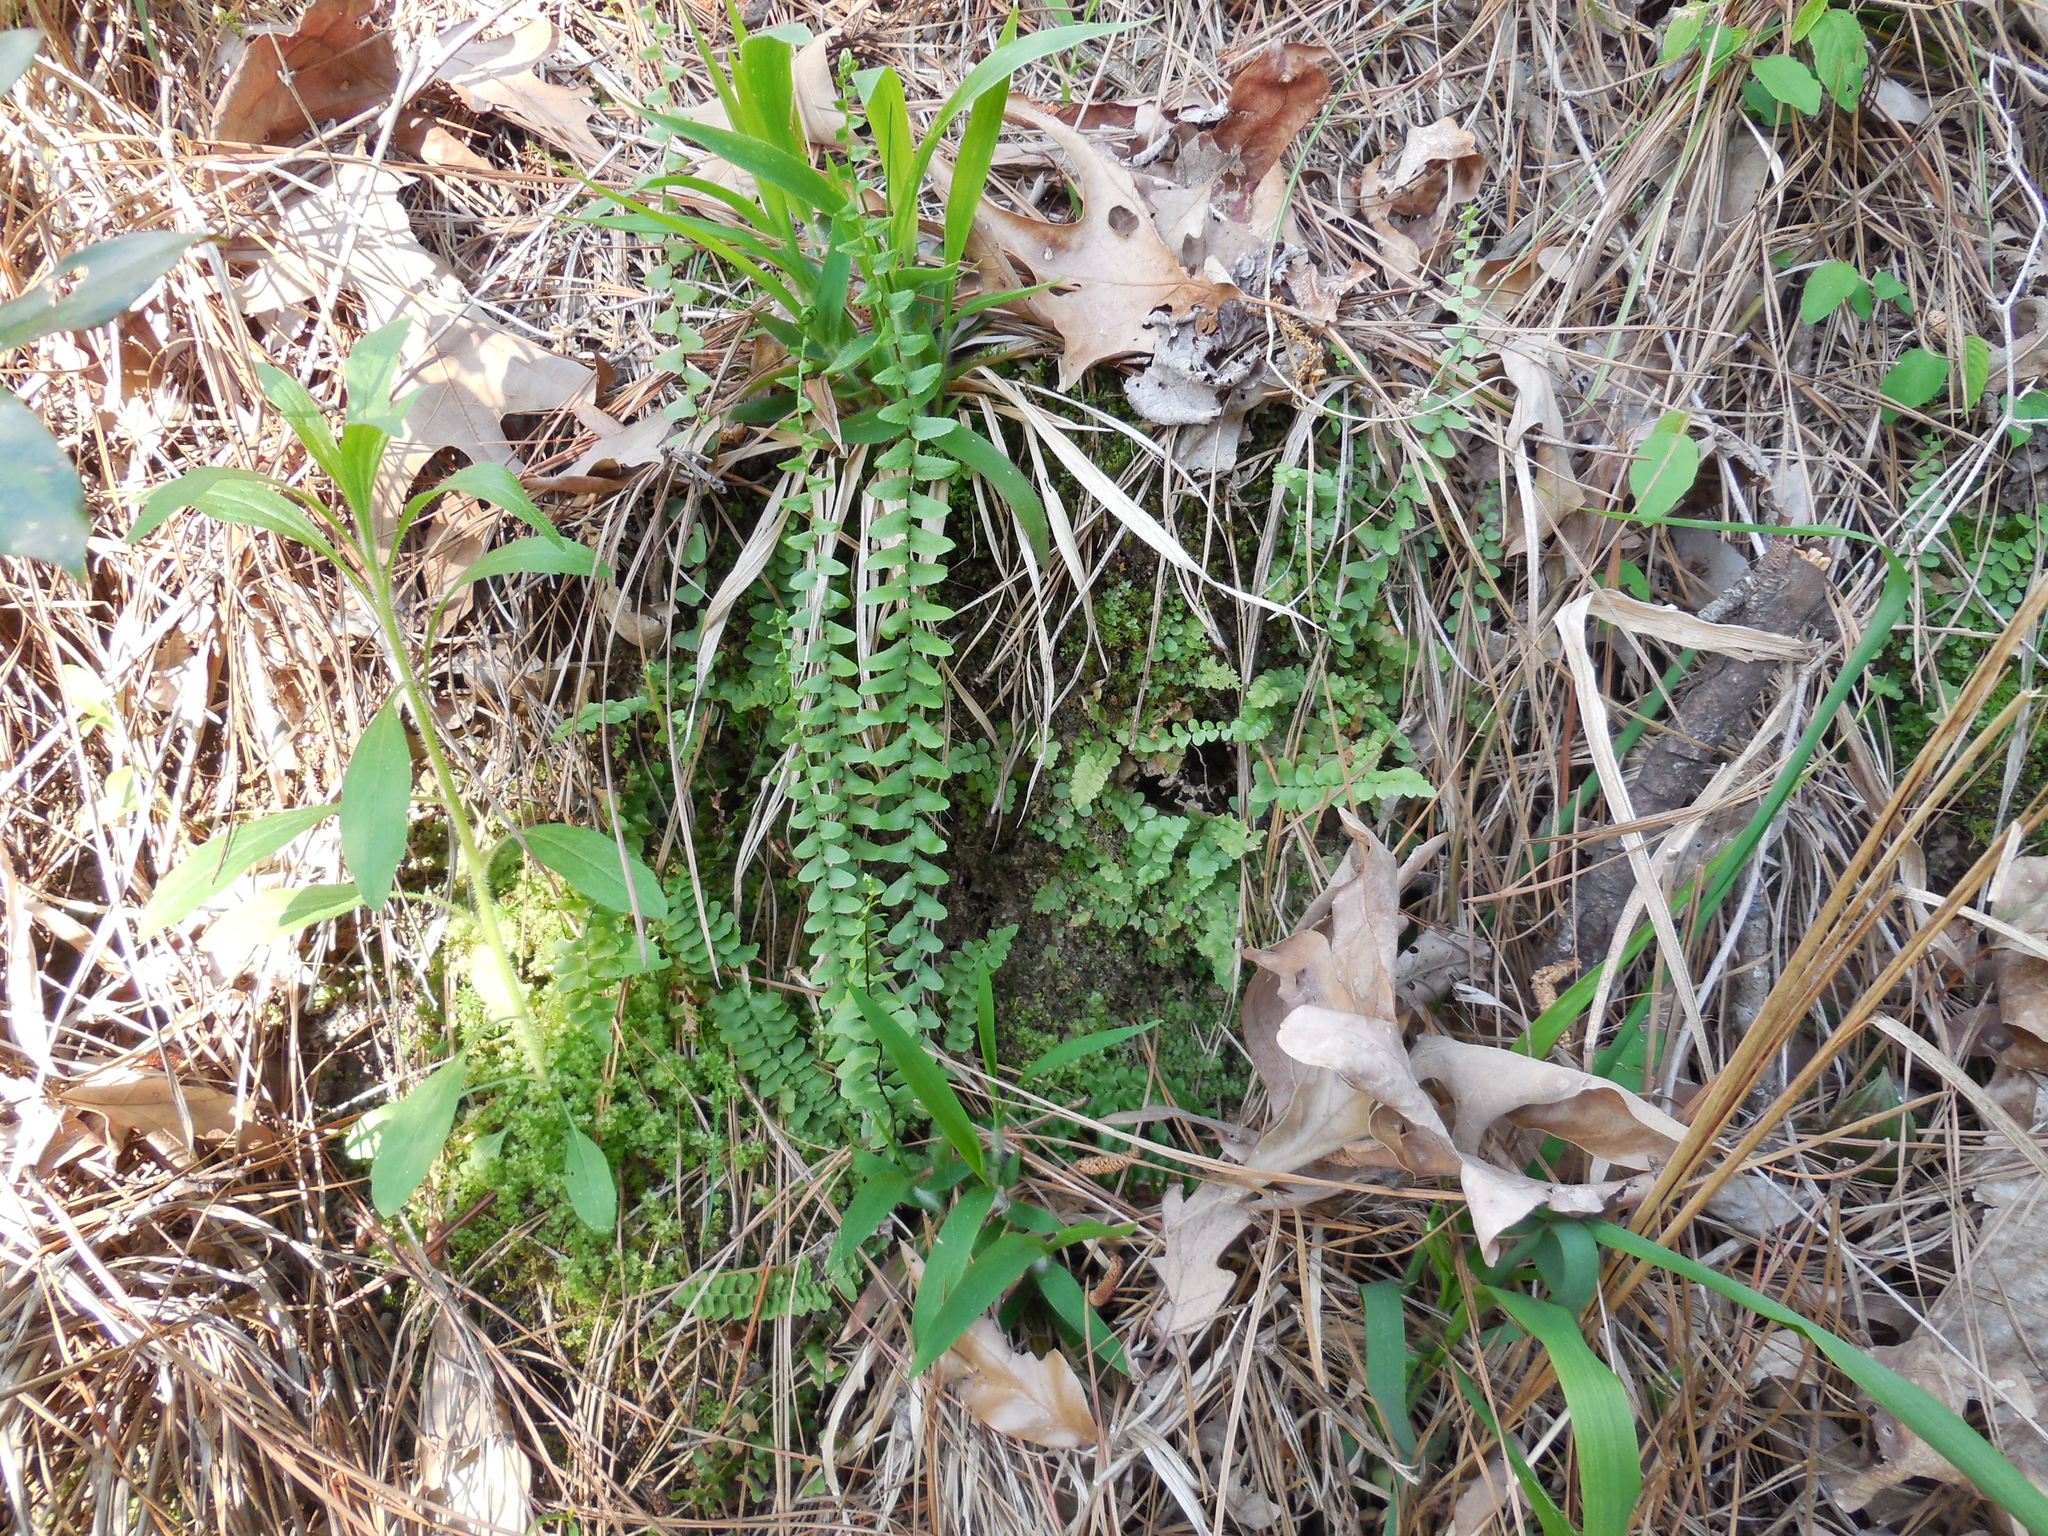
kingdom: Plantae
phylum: Tracheophyta
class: Polypodiopsida
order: Polypodiales
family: Aspleniaceae
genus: Asplenium
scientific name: Asplenium platyneuron
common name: Ebony spleenwort
